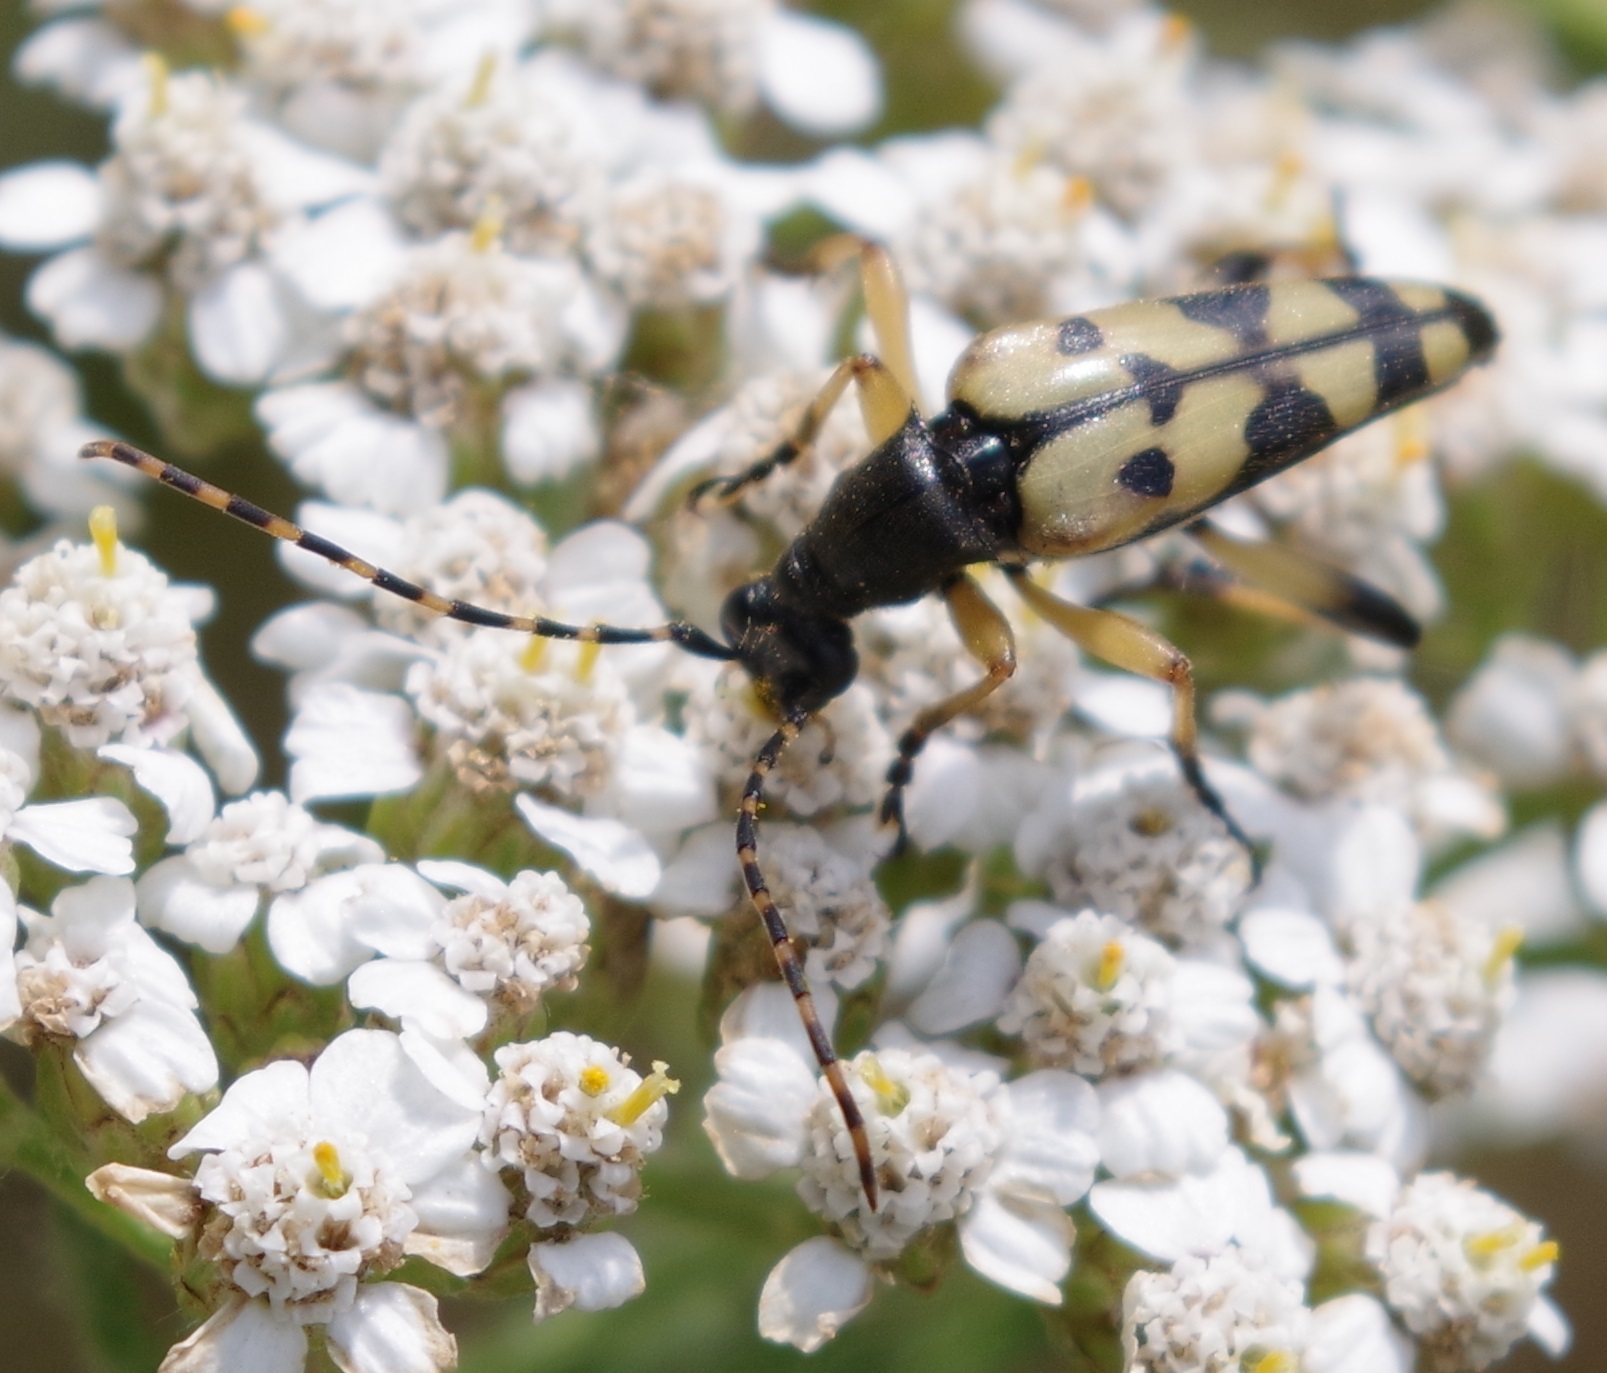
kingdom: Animalia
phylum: Arthropoda
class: Insecta
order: Coleoptera
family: Cerambycidae
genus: Rutpela
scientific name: Rutpela maculata
